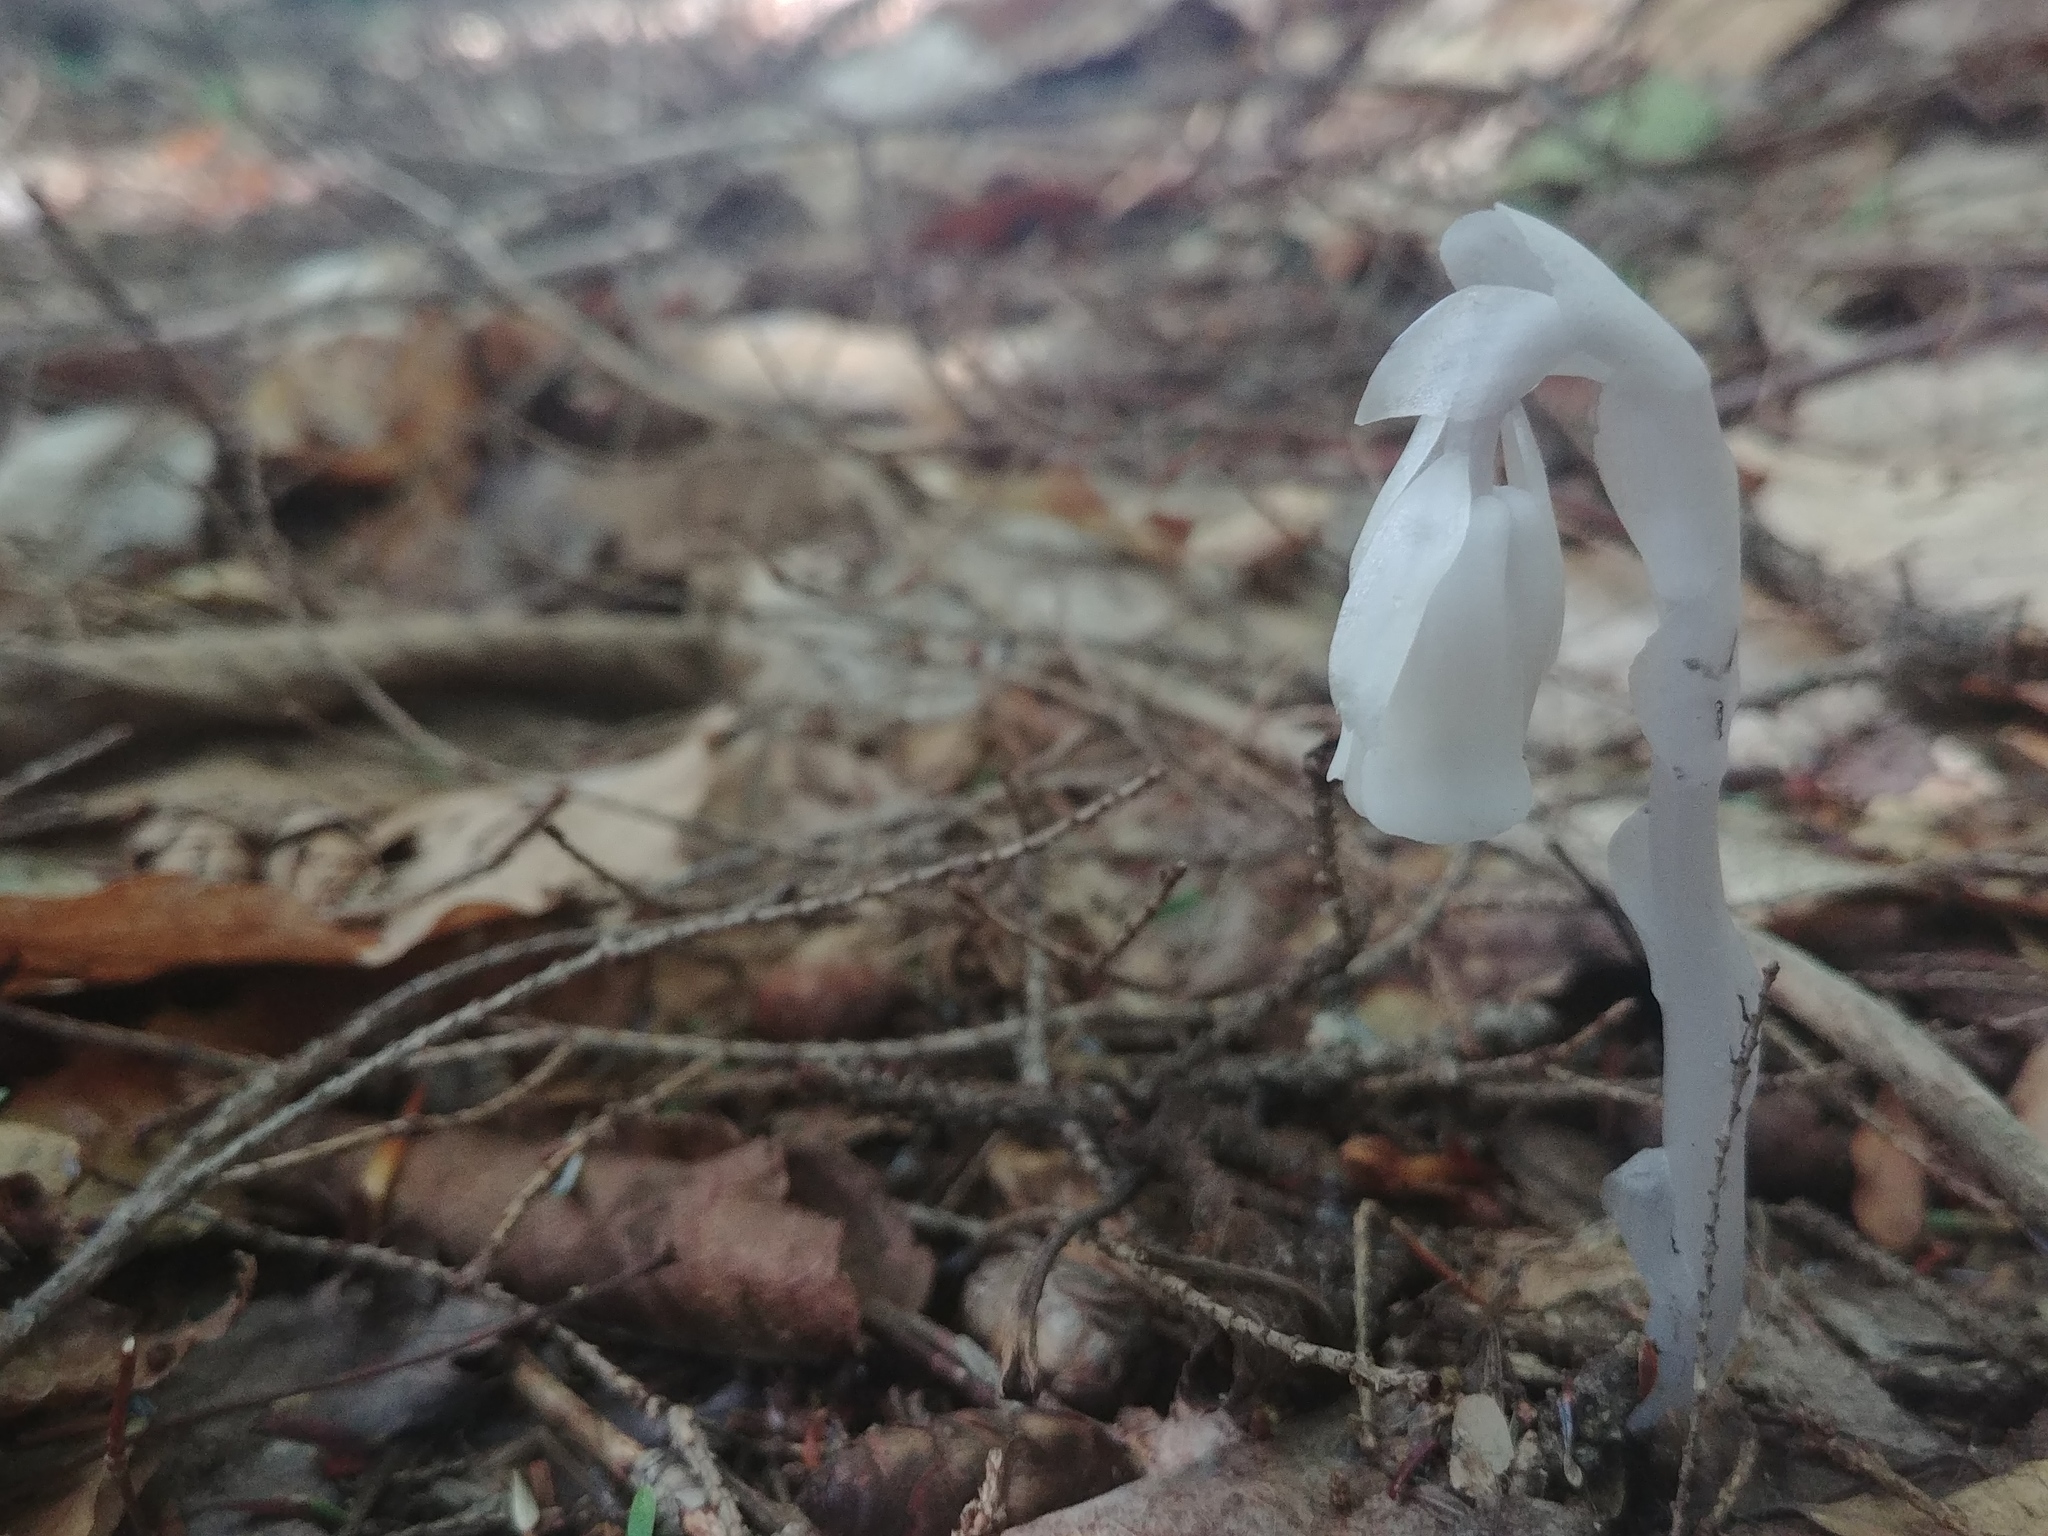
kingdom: Plantae
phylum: Tracheophyta
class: Magnoliopsida
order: Ericales
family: Ericaceae
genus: Monotropa
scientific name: Monotropa uniflora
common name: Convulsion root
